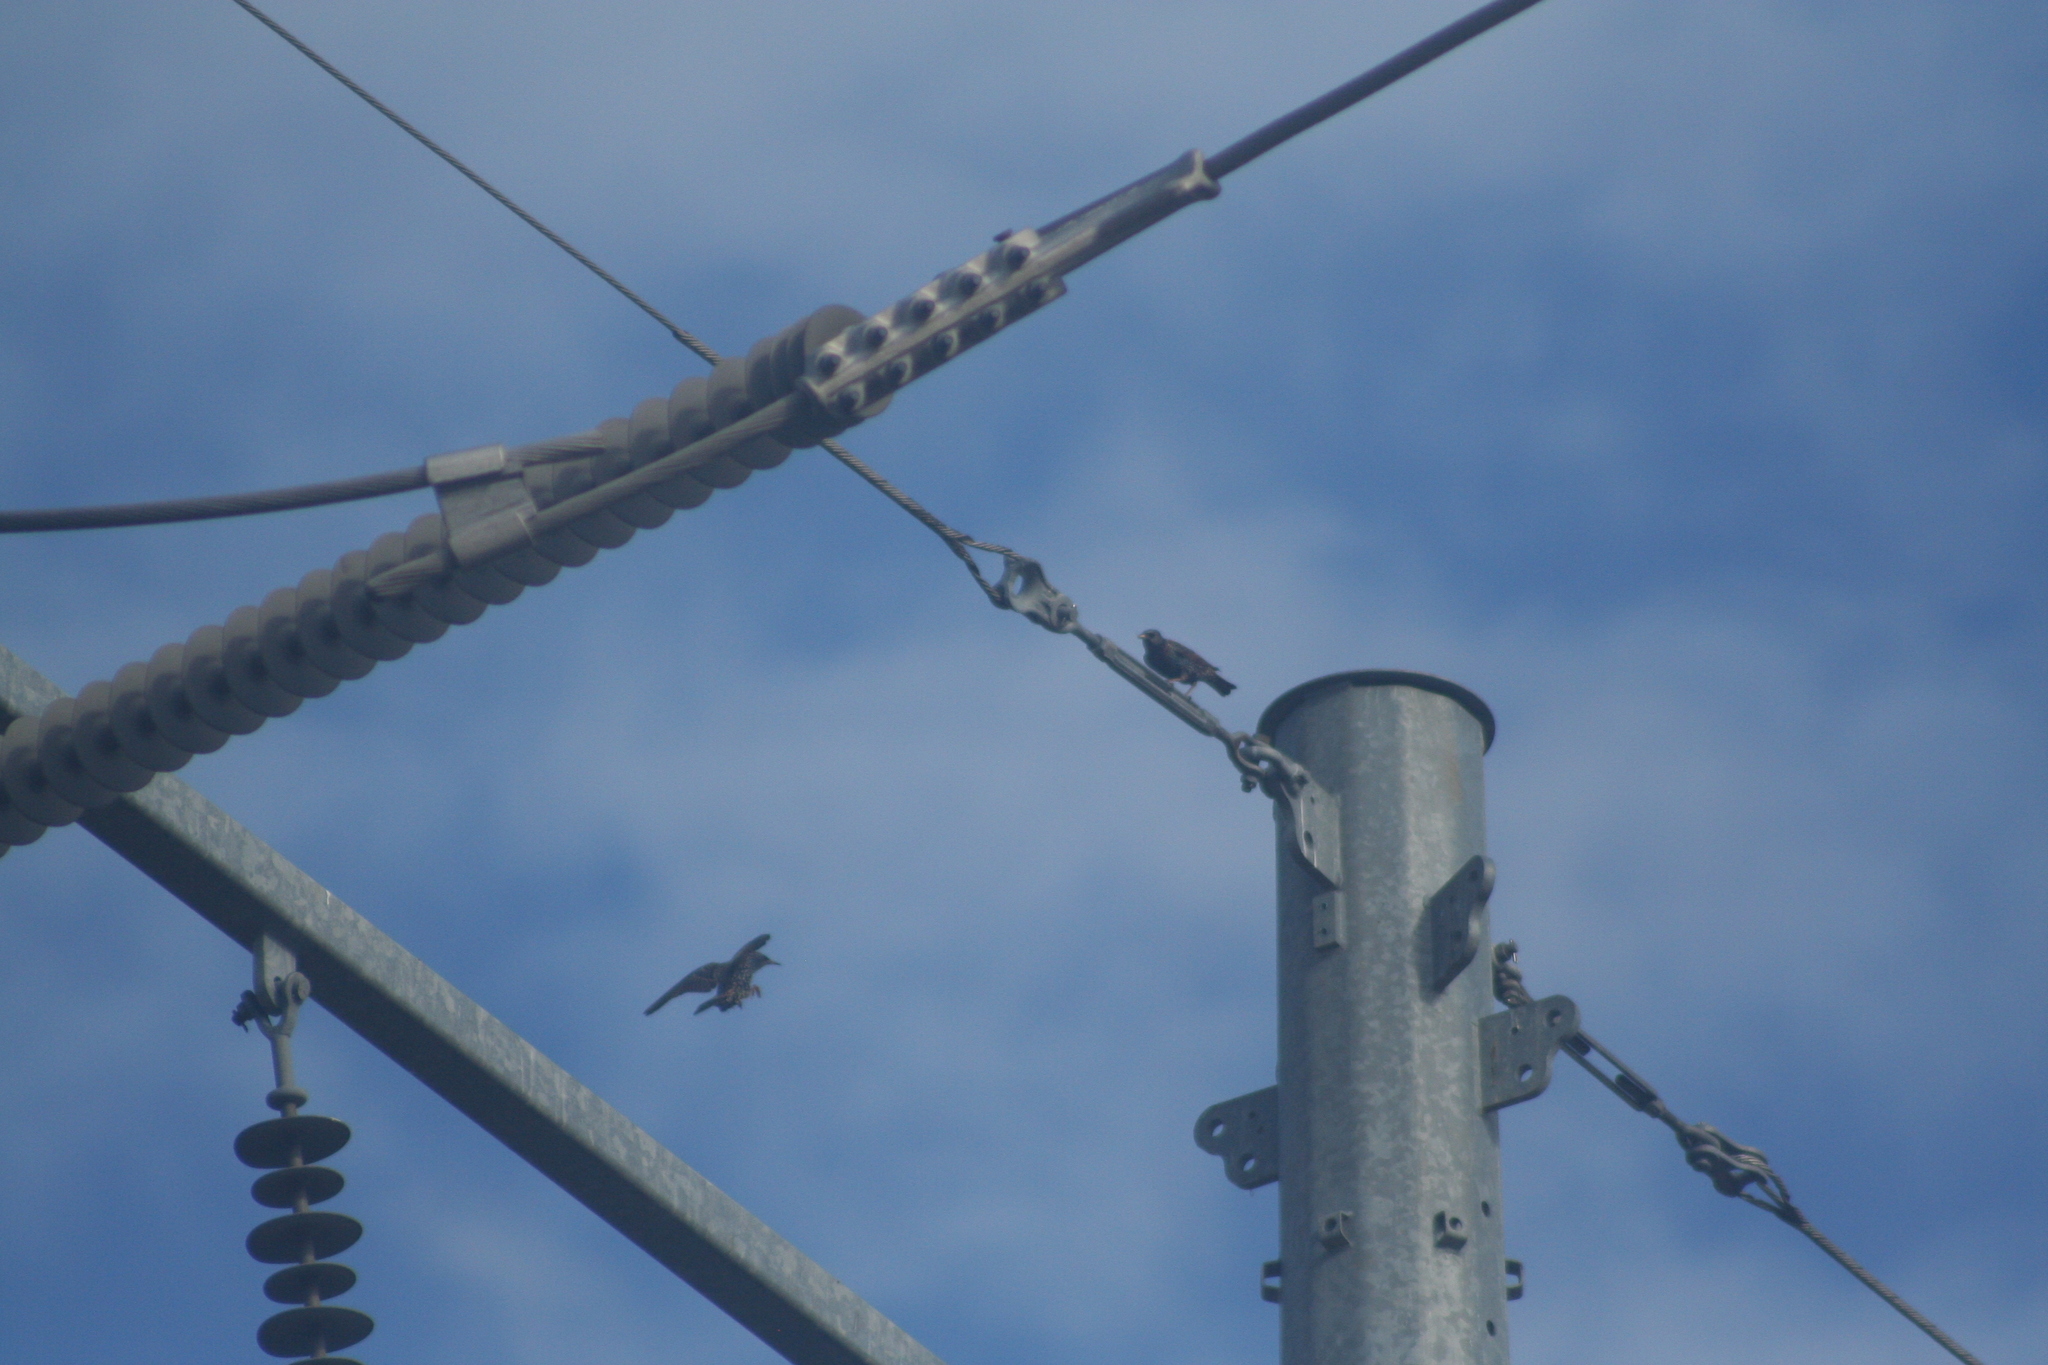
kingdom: Animalia
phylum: Chordata
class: Aves
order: Passeriformes
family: Sturnidae
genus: Sturnus
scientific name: Sturnus vulgaris
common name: Common starling
